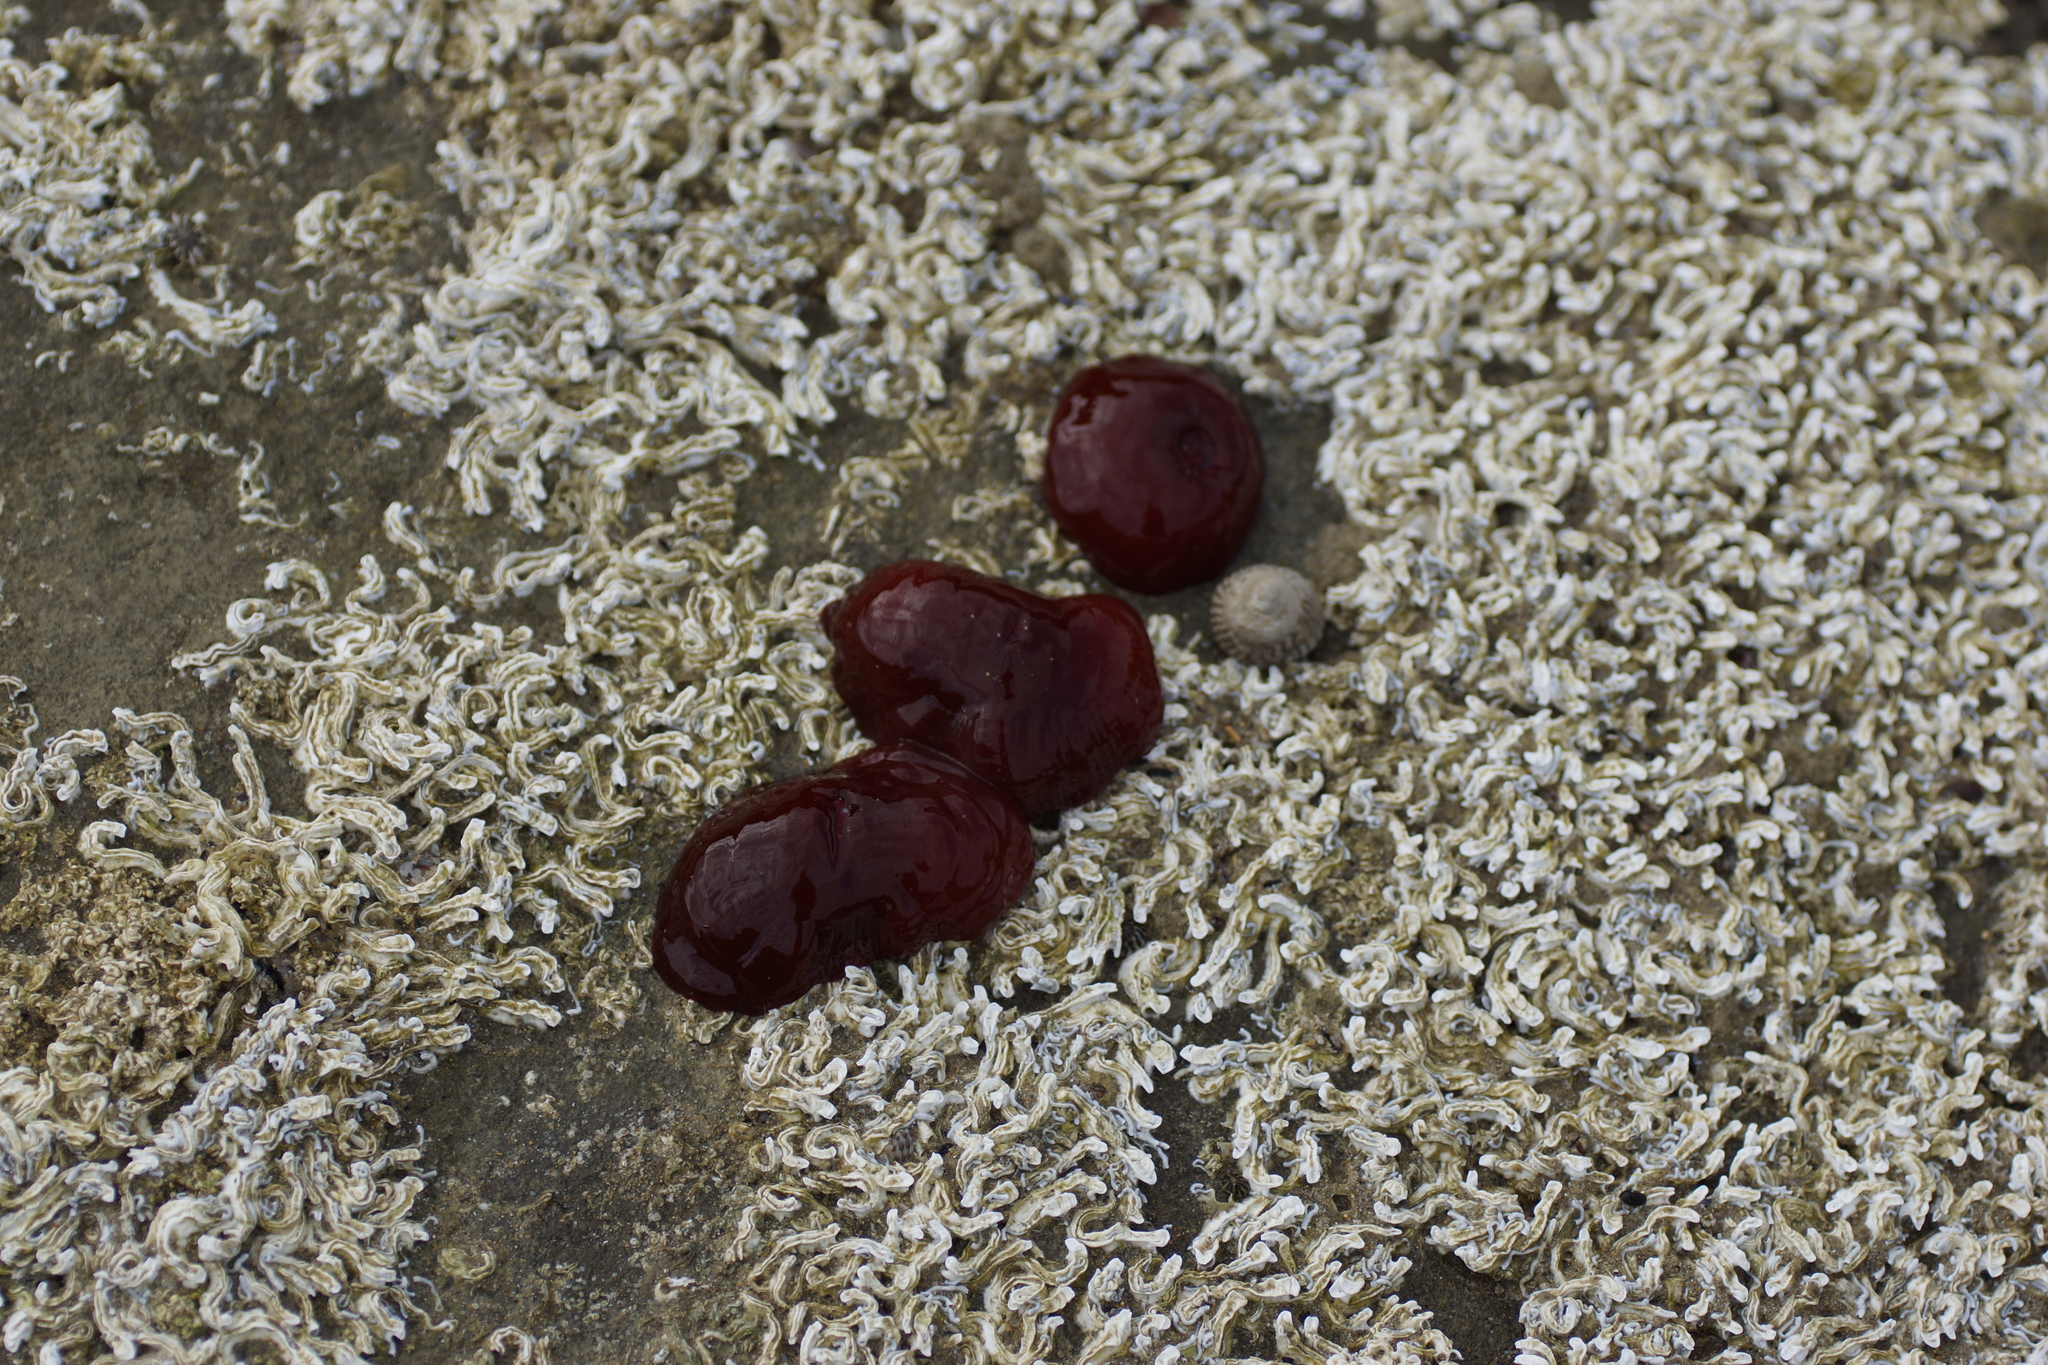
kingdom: Animalia
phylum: Cnidaria
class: Anthozoa
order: Actiniaria
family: Actiniidae
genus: Actinia
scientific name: Actinia tenebrosa
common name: Waratah anemone
